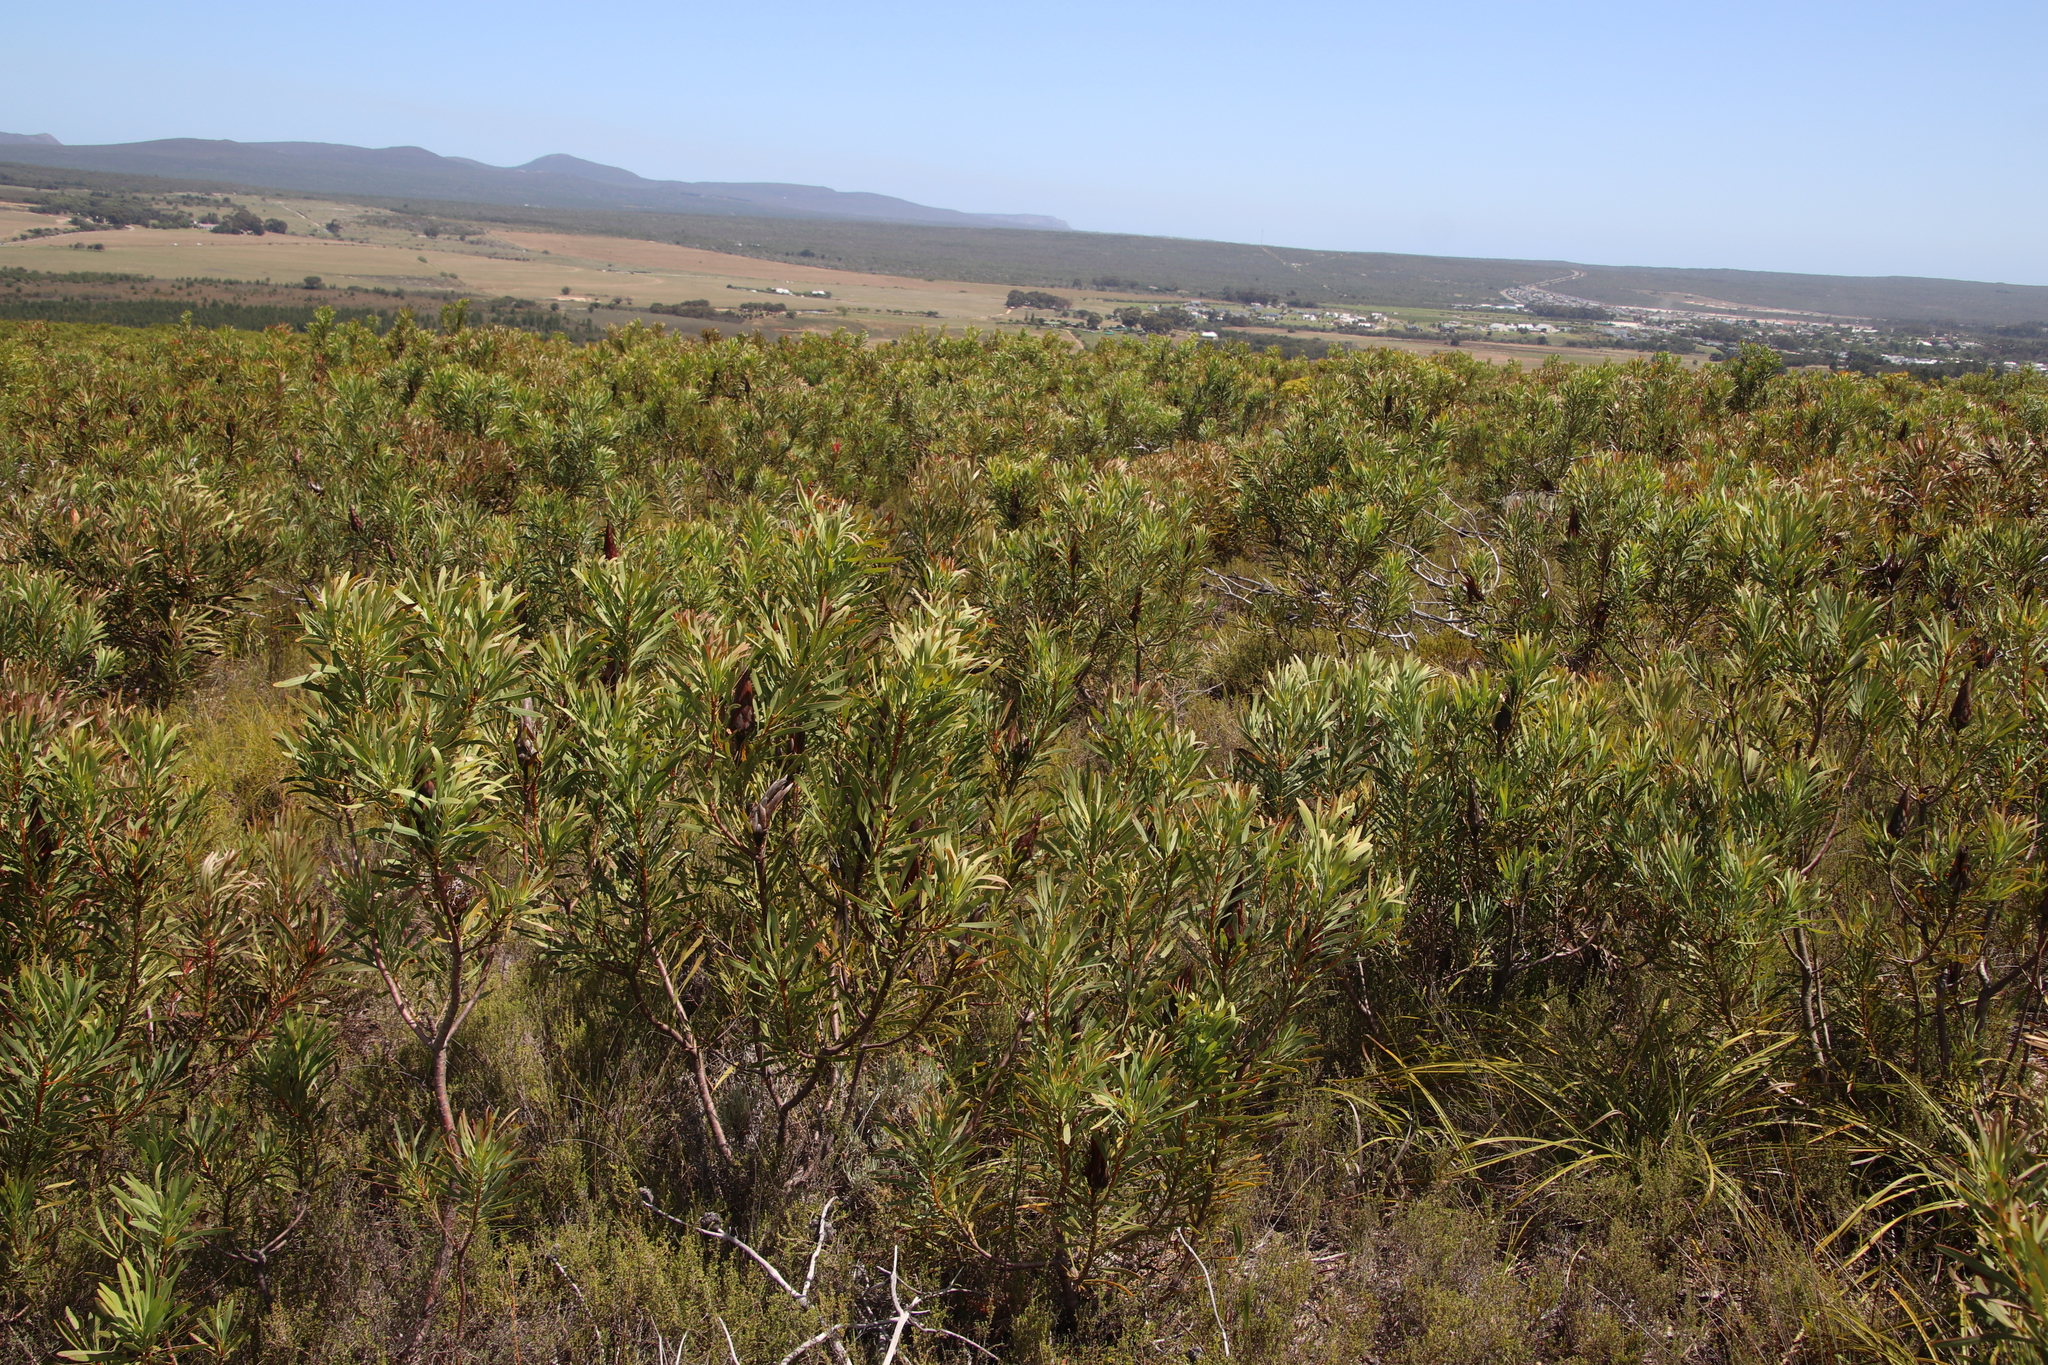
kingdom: Plantae
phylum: Tracheophyta
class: Magnoliopsida
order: Proteales
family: Proteaceae
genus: Protea
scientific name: Protea repens
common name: Sugarbush
